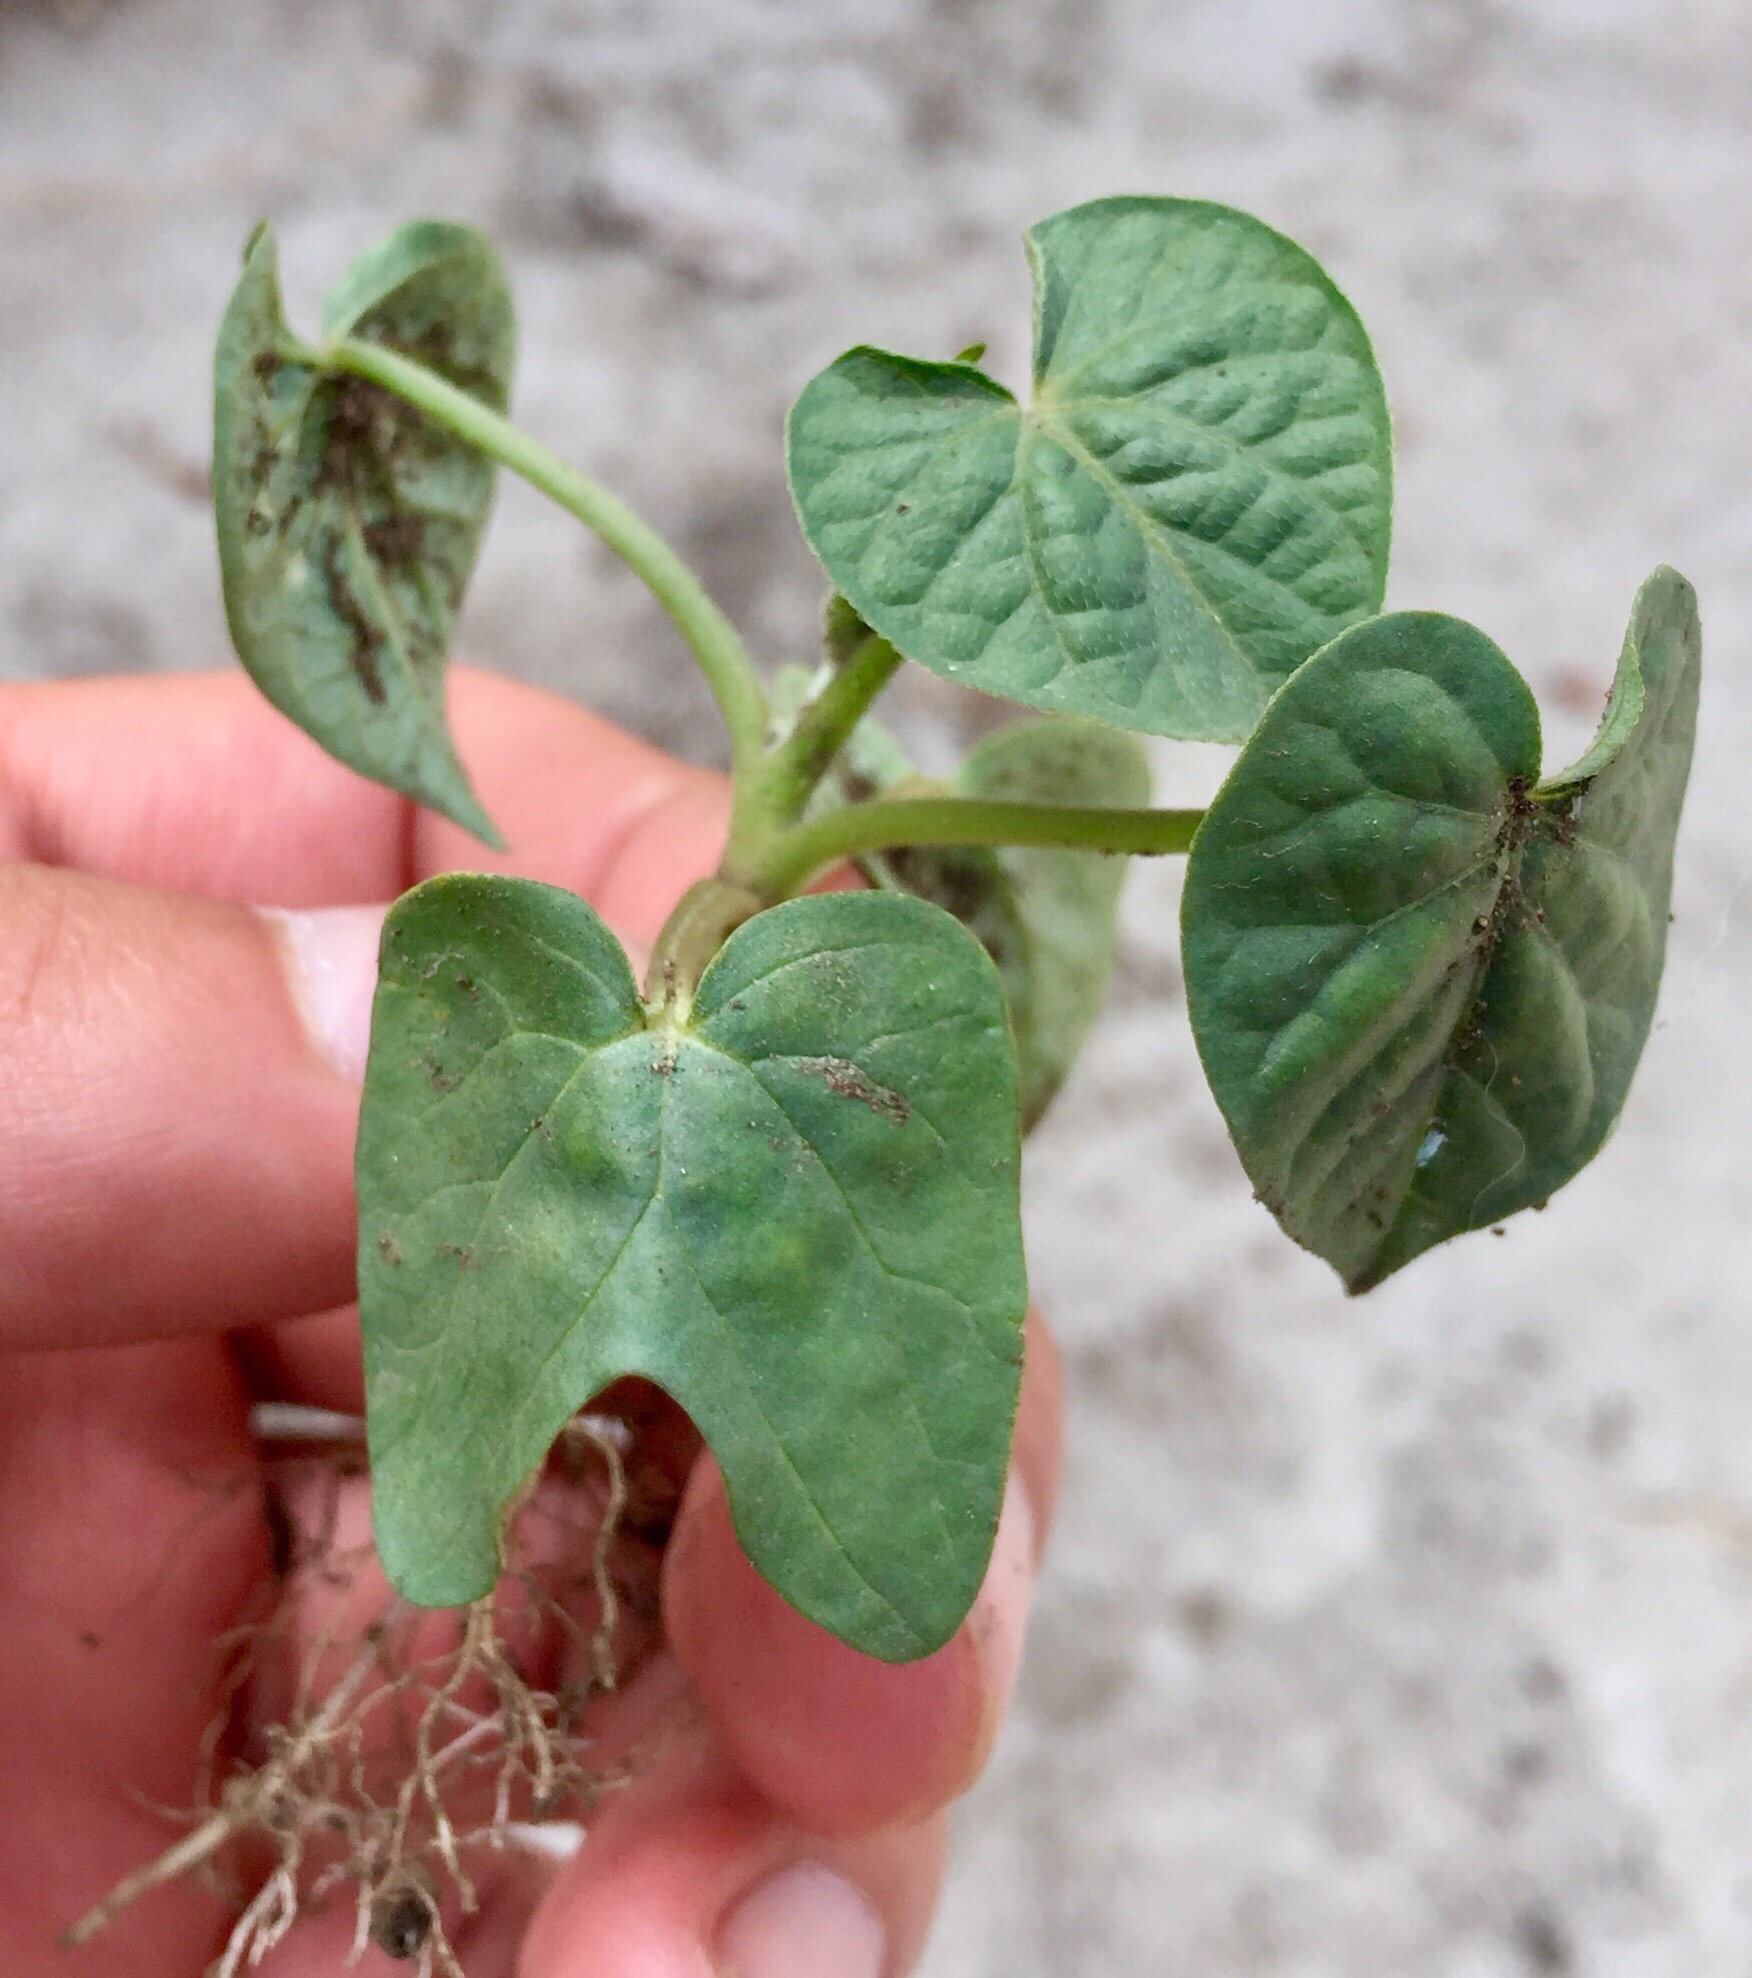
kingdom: Plantae
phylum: Tracheophyta
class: Magnoliopsida
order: Solanales
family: Convolvulaceae
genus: Ipomoea
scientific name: Ipomoea purpurea
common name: Common morning-glory
